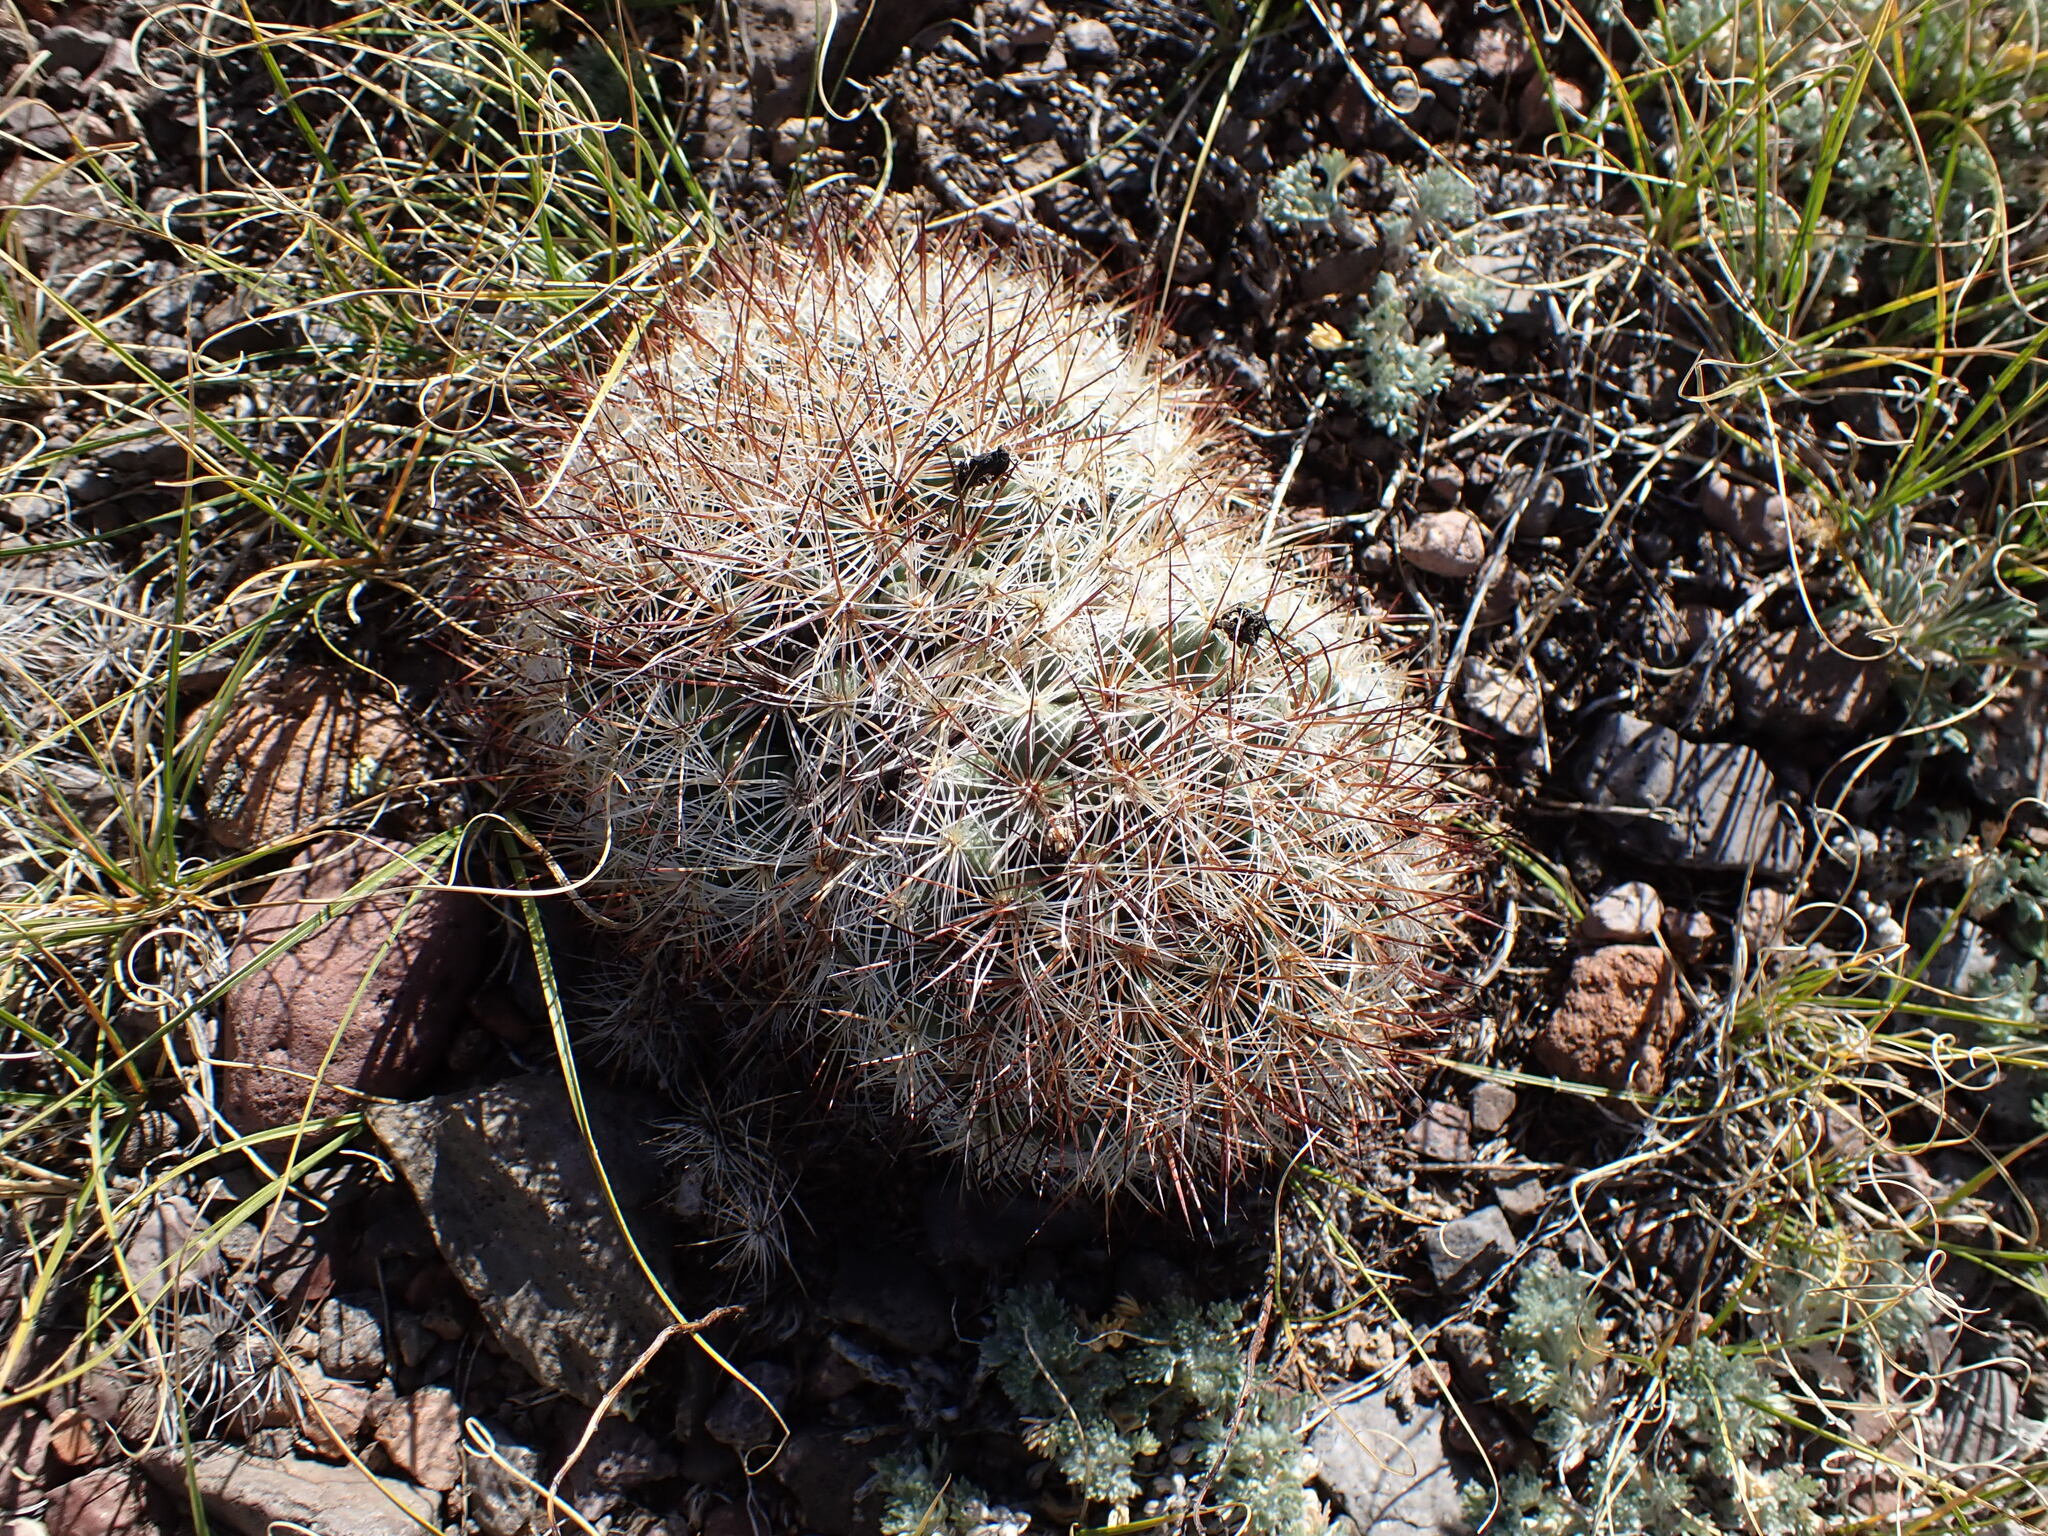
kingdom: Plantae
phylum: Tracheophyta
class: Magnoliopsida
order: Caryophyllales
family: Cactaceae
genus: Pediocactus
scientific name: Pediocactus simpsonii
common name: Simpson's hedgehog cactus
